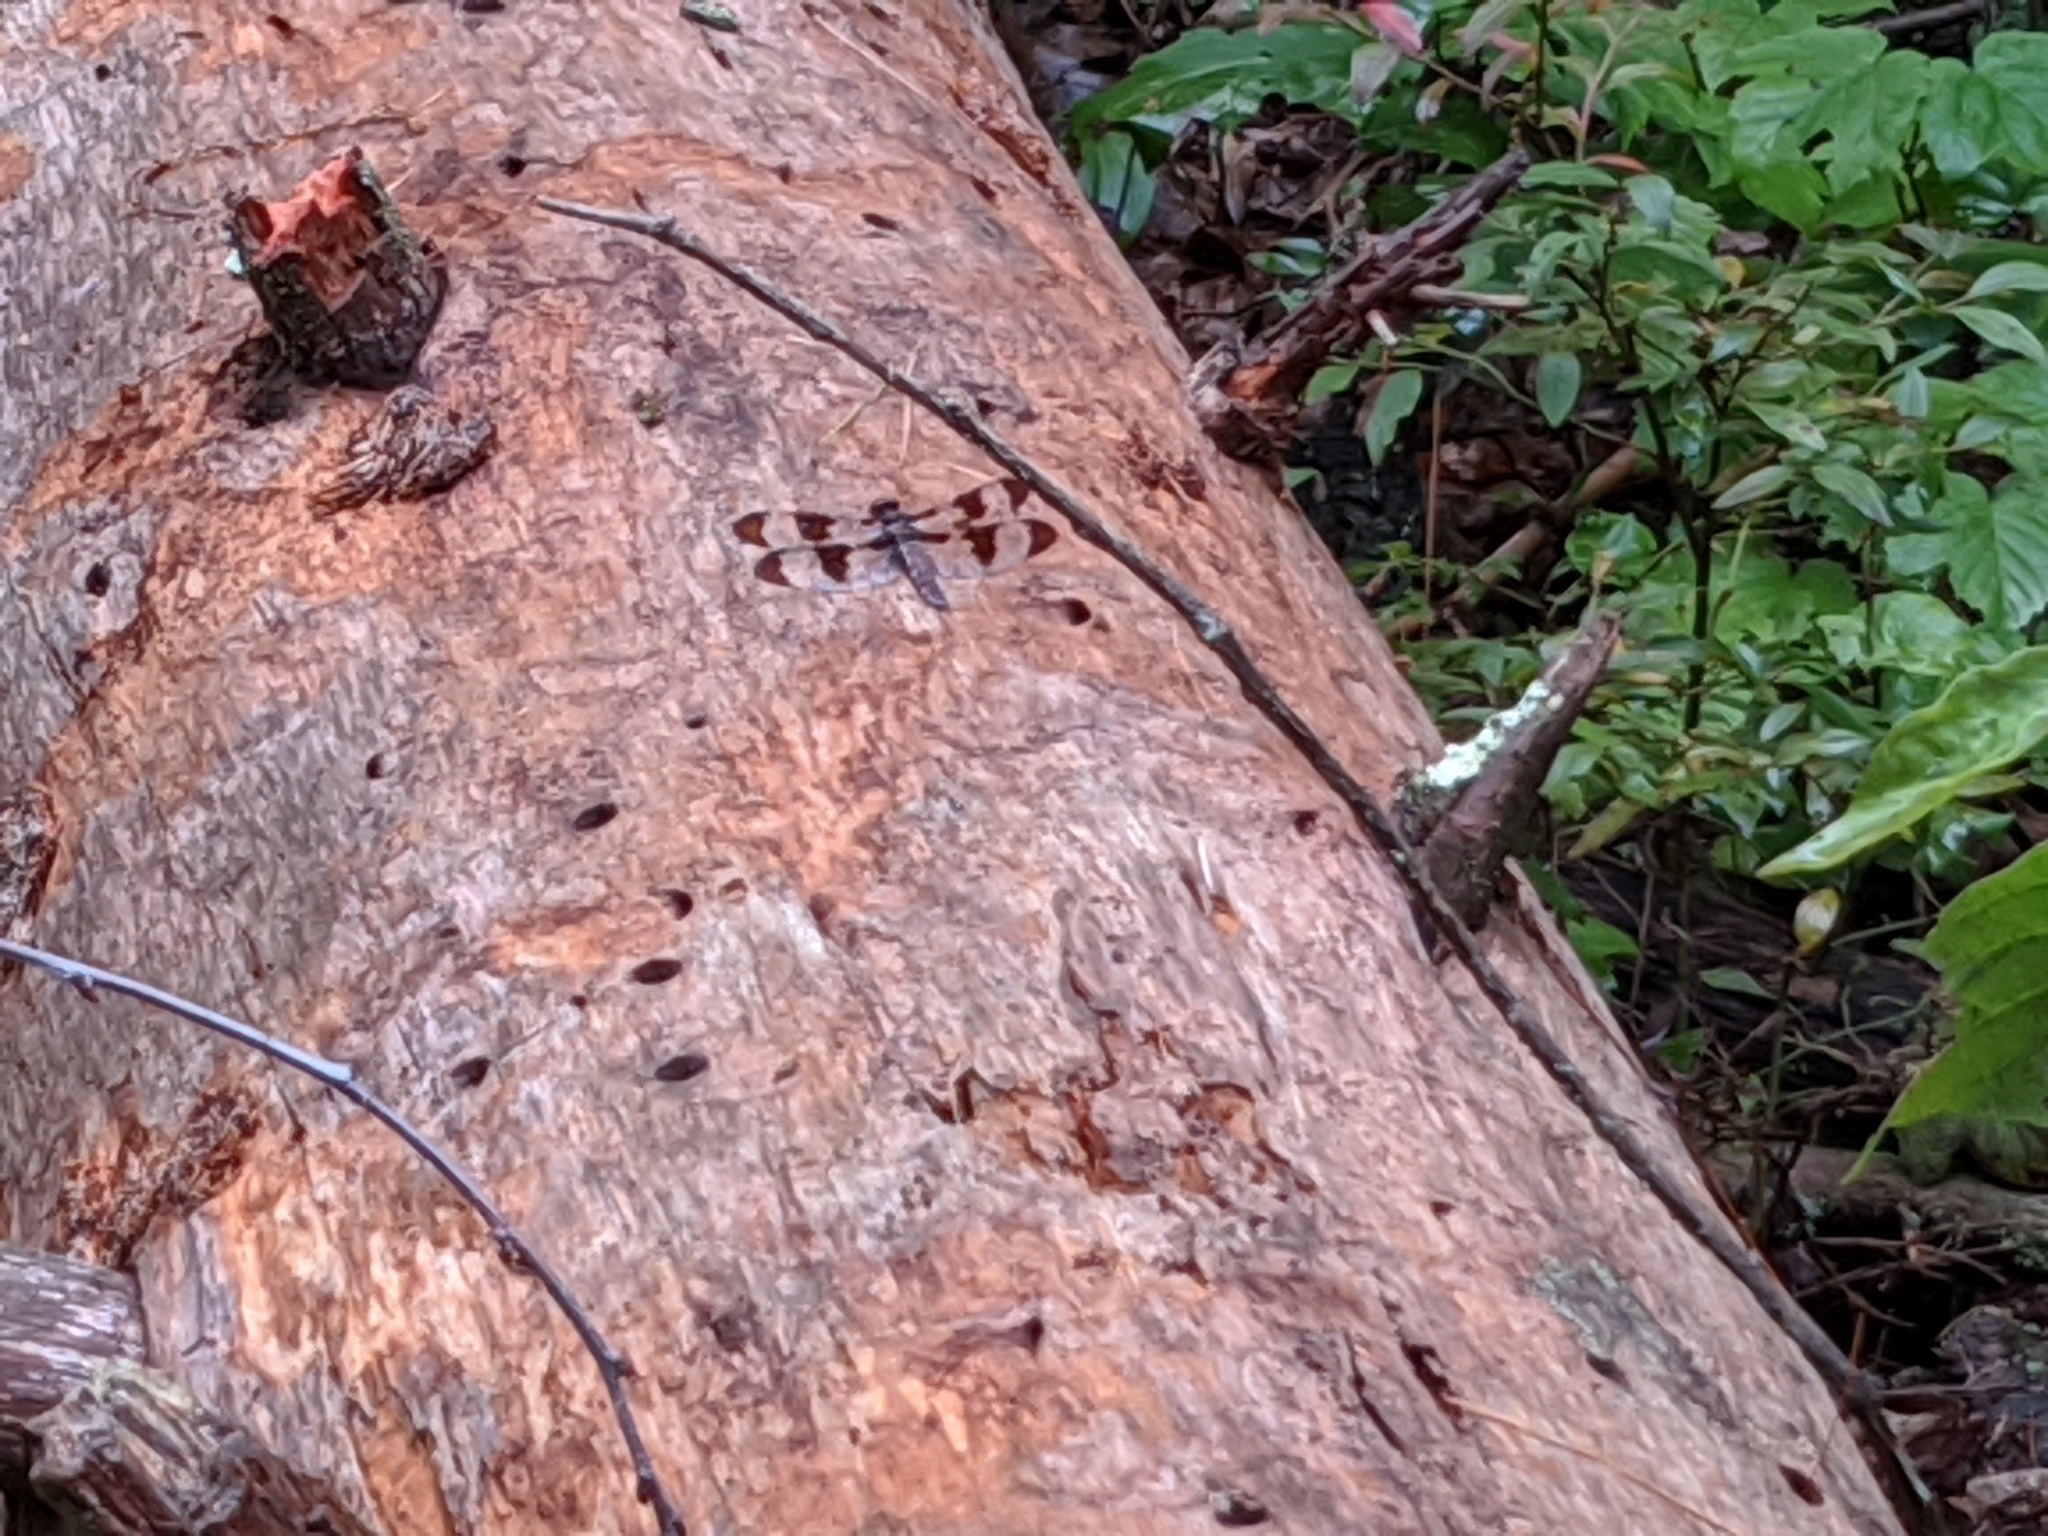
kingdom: Animalia
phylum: Arthropoda
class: Insecta
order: Odonata
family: Libellulidae
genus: Plathemis
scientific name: Plathemis lydia
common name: Common whitetail
